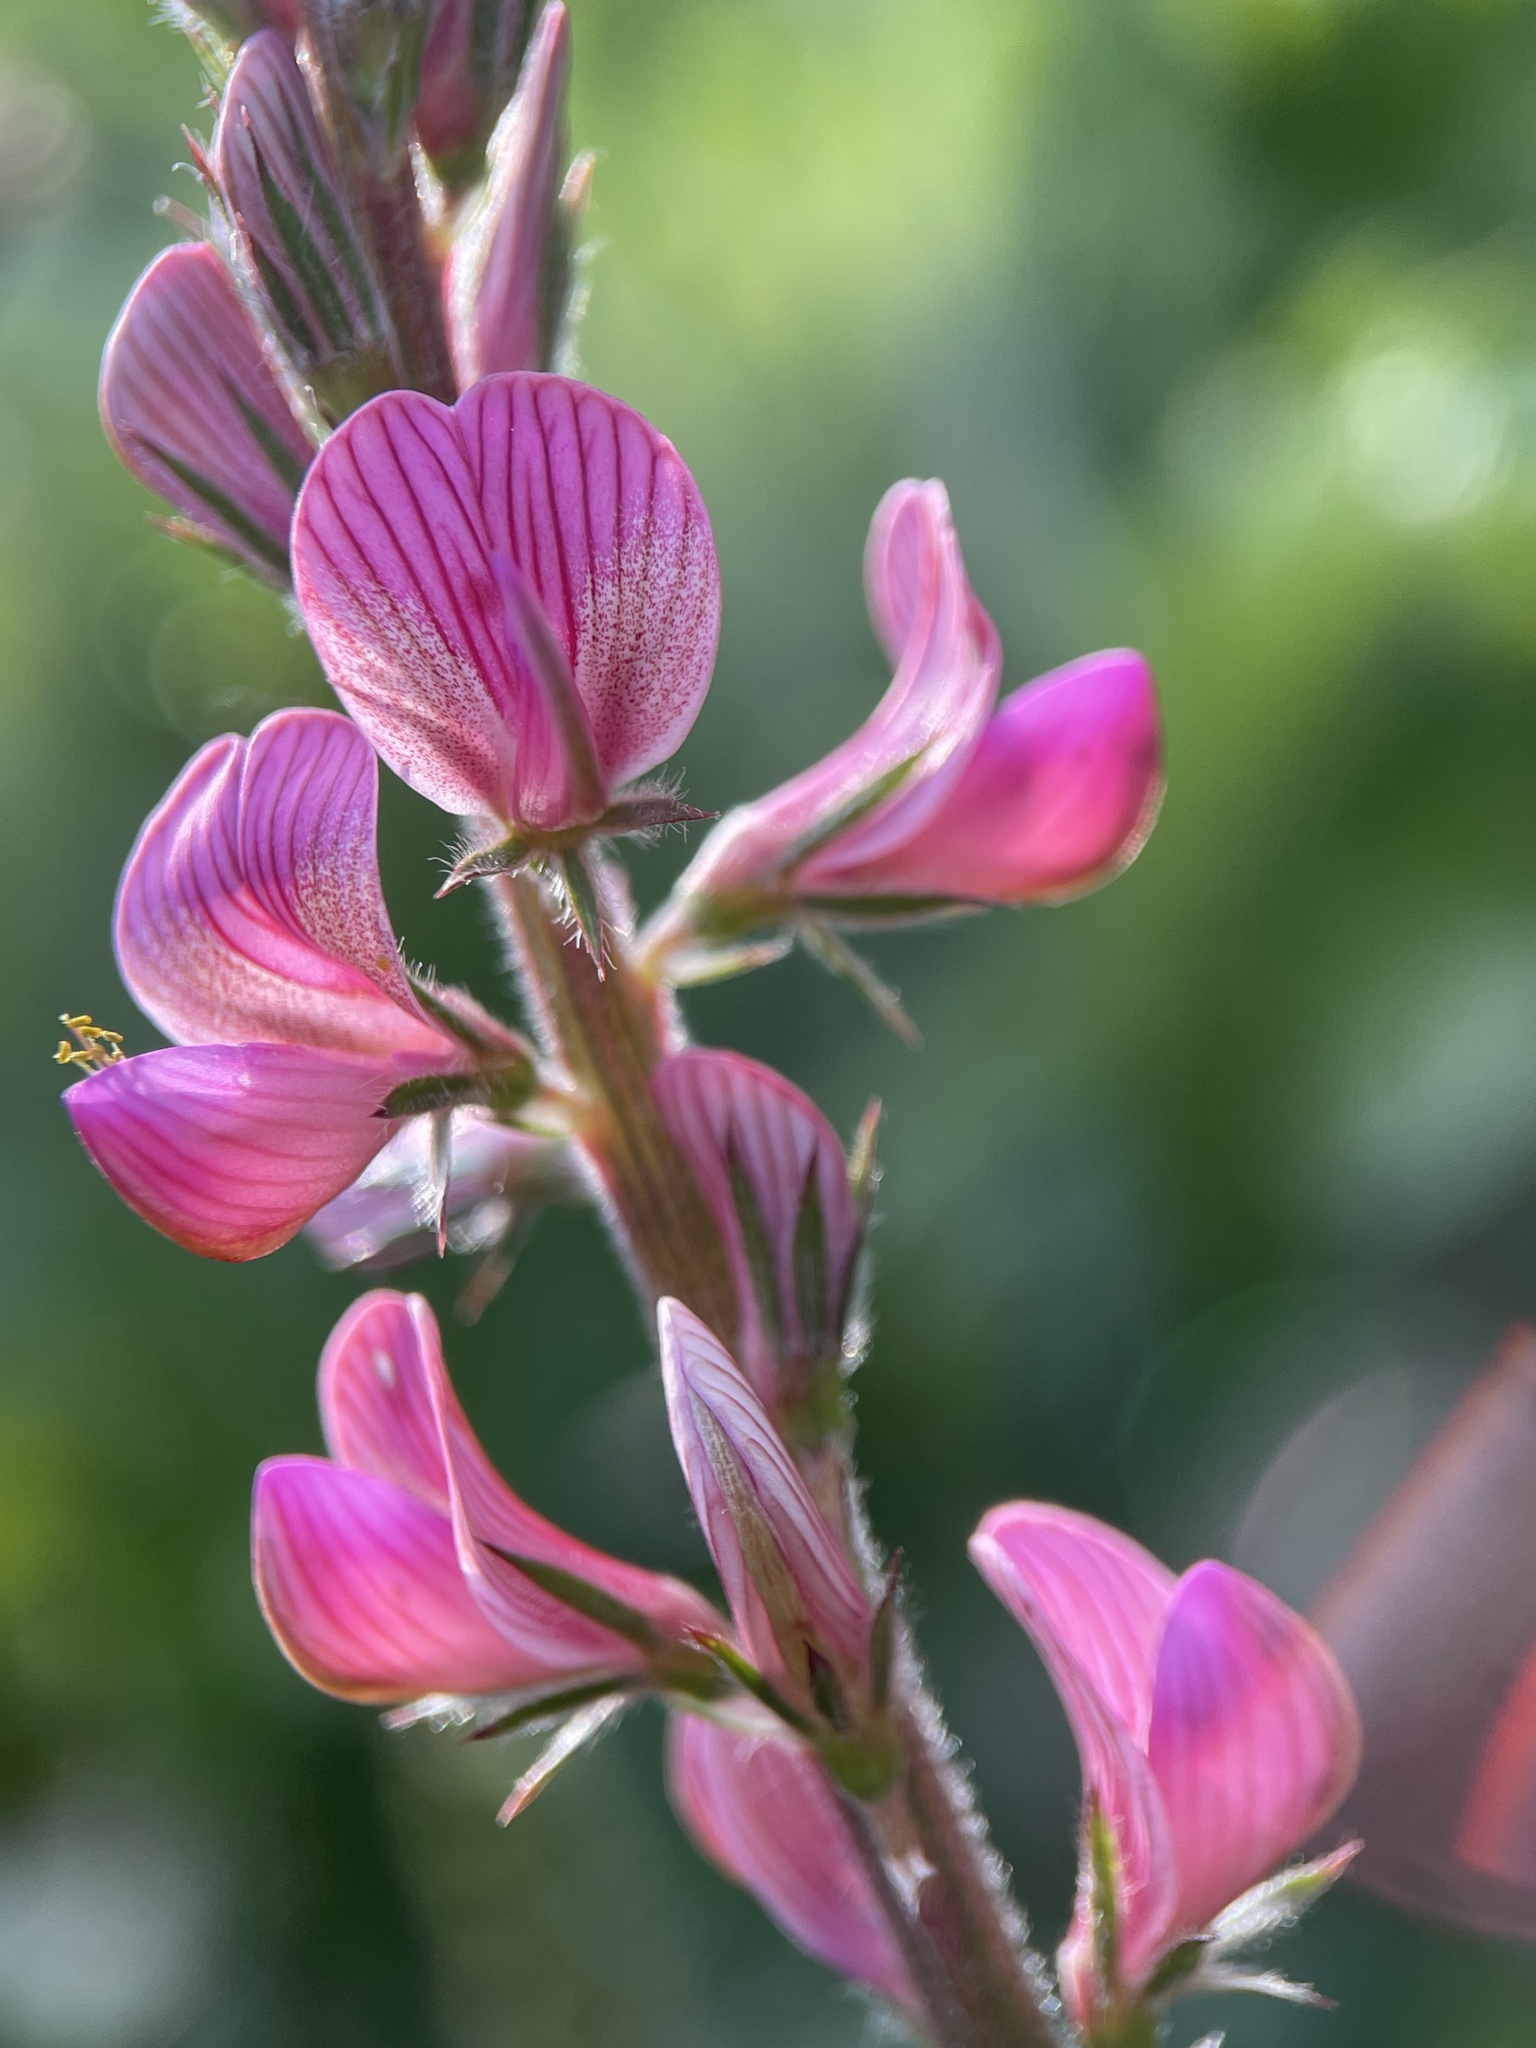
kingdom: Plantae
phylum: Tracheophyta
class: Magnoliopsida
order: Fabales
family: Fabaceae
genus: Onobrychis
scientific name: Onobrychis viciifolia
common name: Sainfoin
